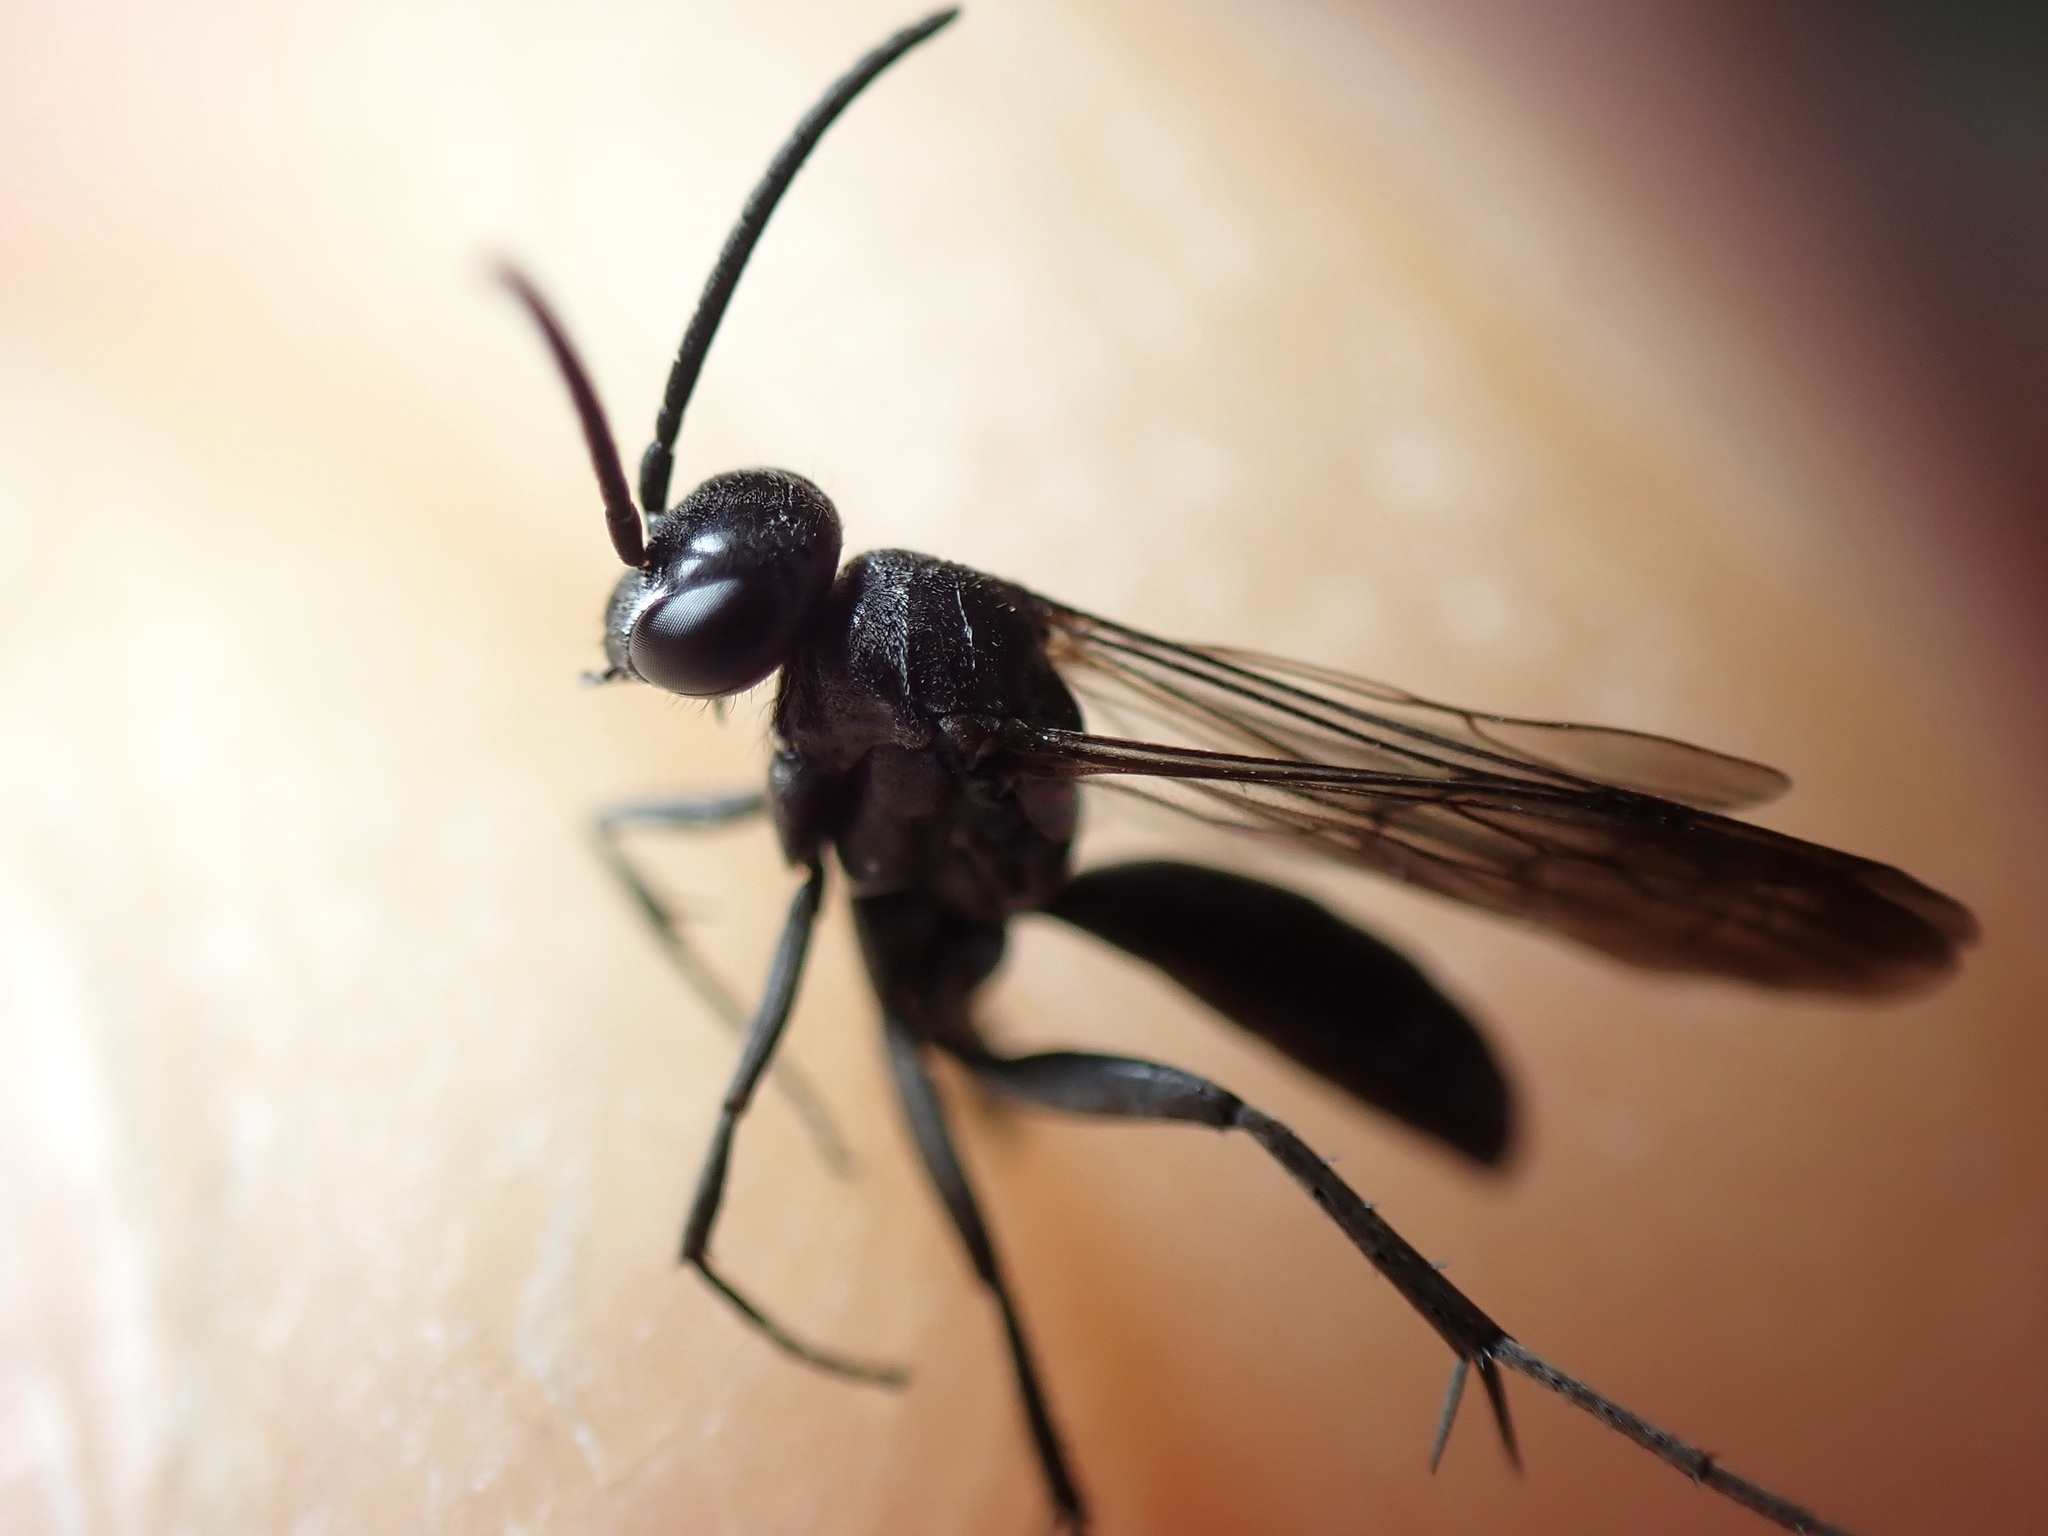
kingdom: Animalia
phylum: Arthropoda
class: Insecta
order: Hymenoptera
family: Pompilidae
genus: Agenioideus
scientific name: Agenioideus sericeus
